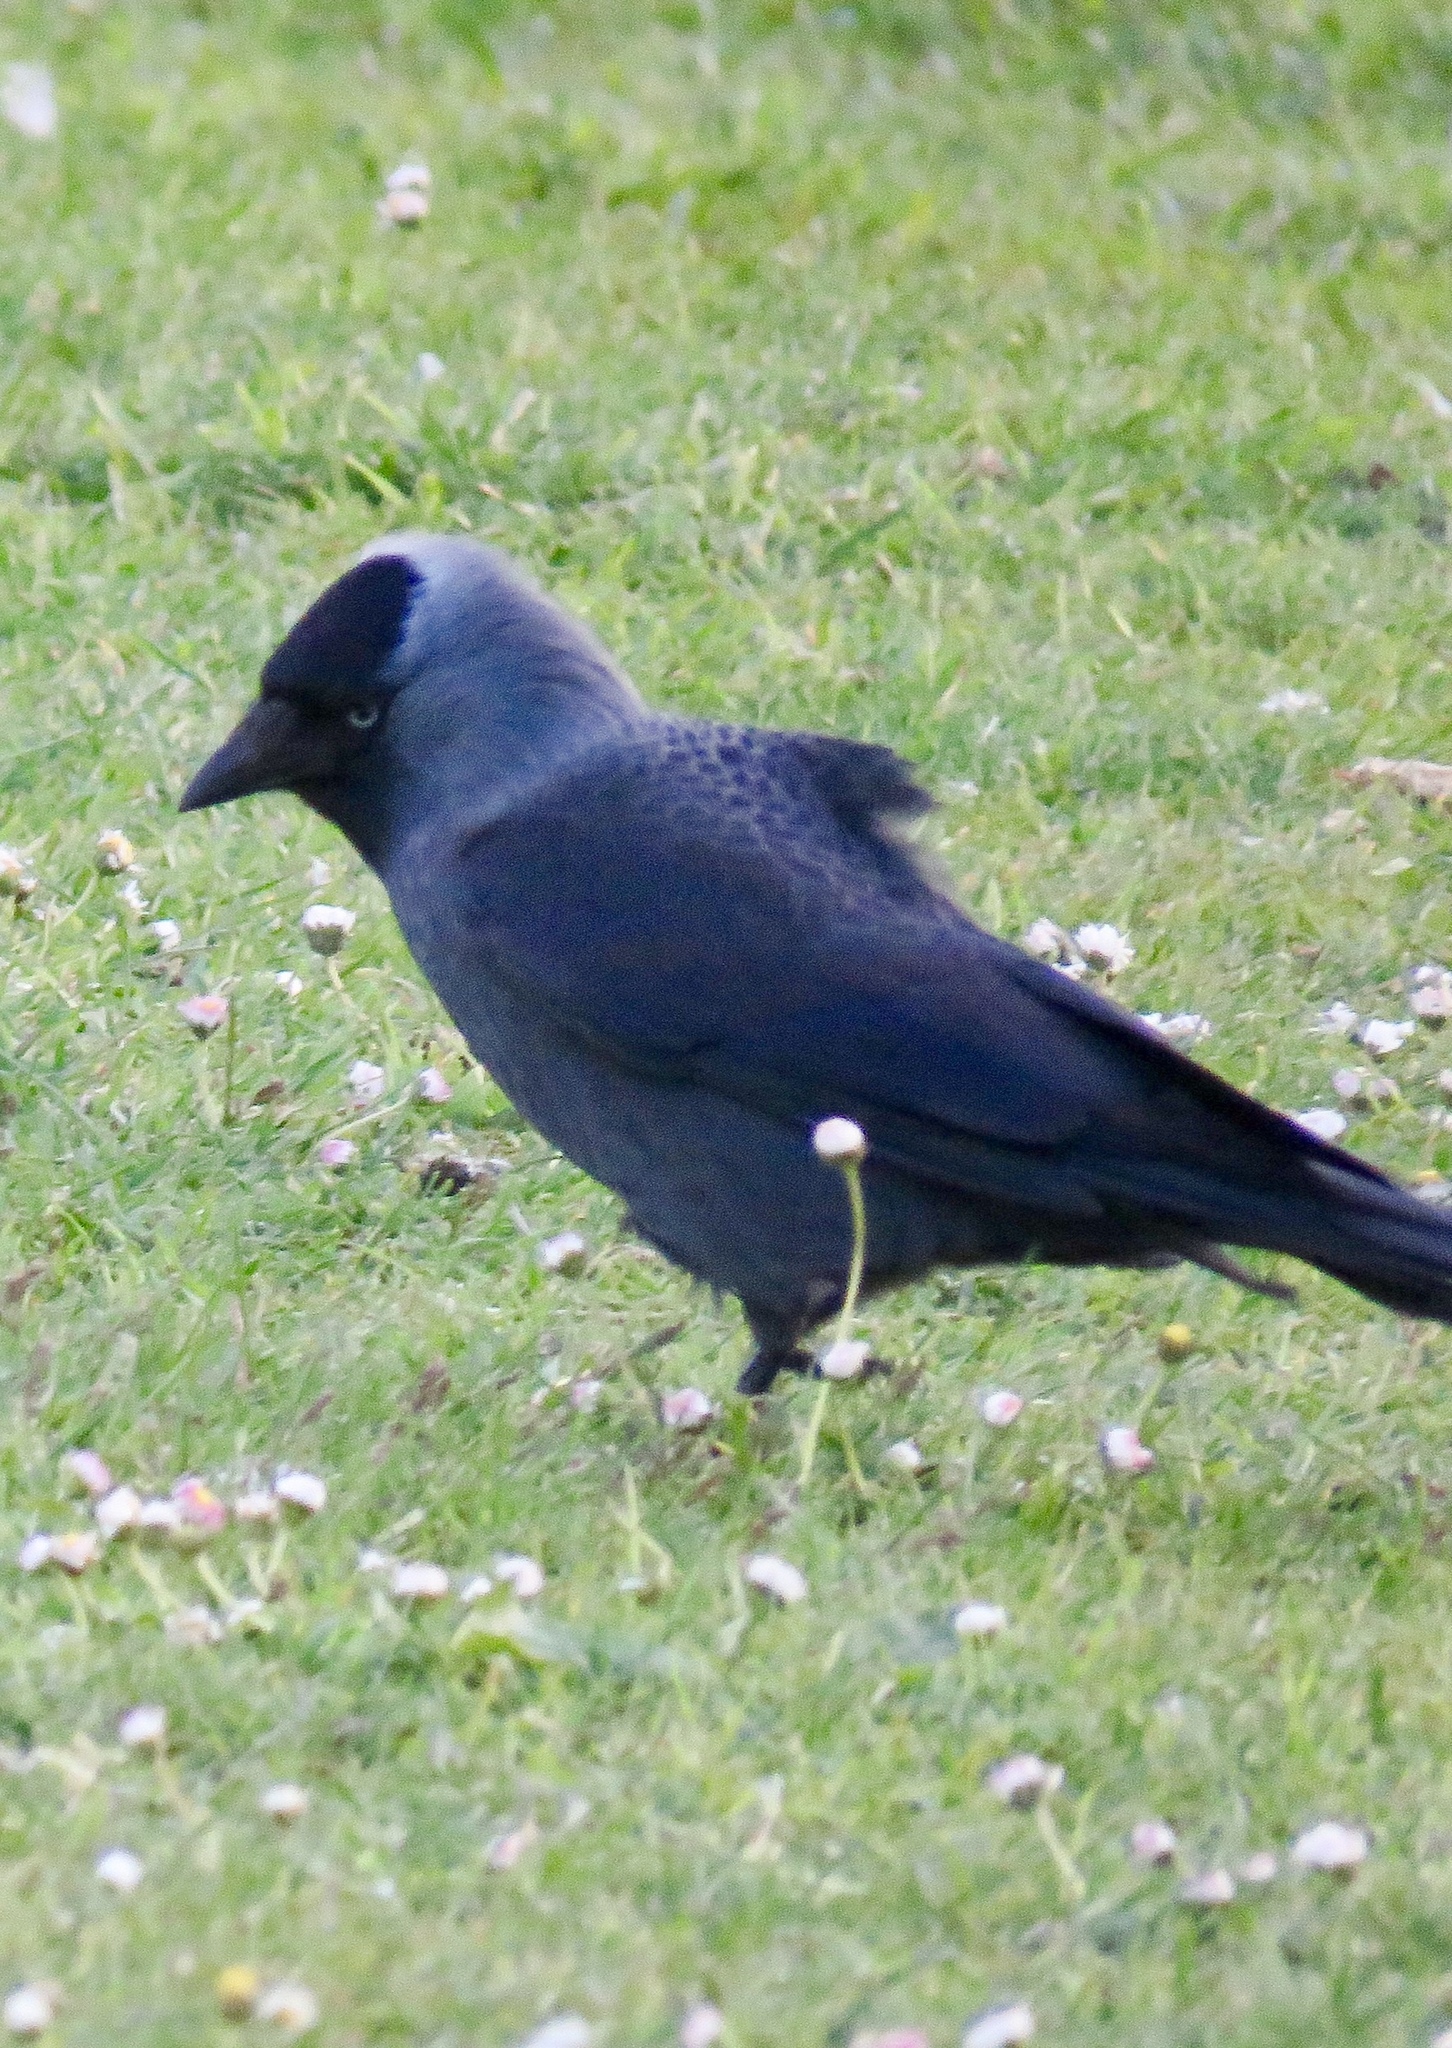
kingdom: Animalia
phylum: Chordata
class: Aves
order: Passeriformes
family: Corvidae
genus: Coloeus
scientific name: Coloeus monedula
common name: Western jackdaw
